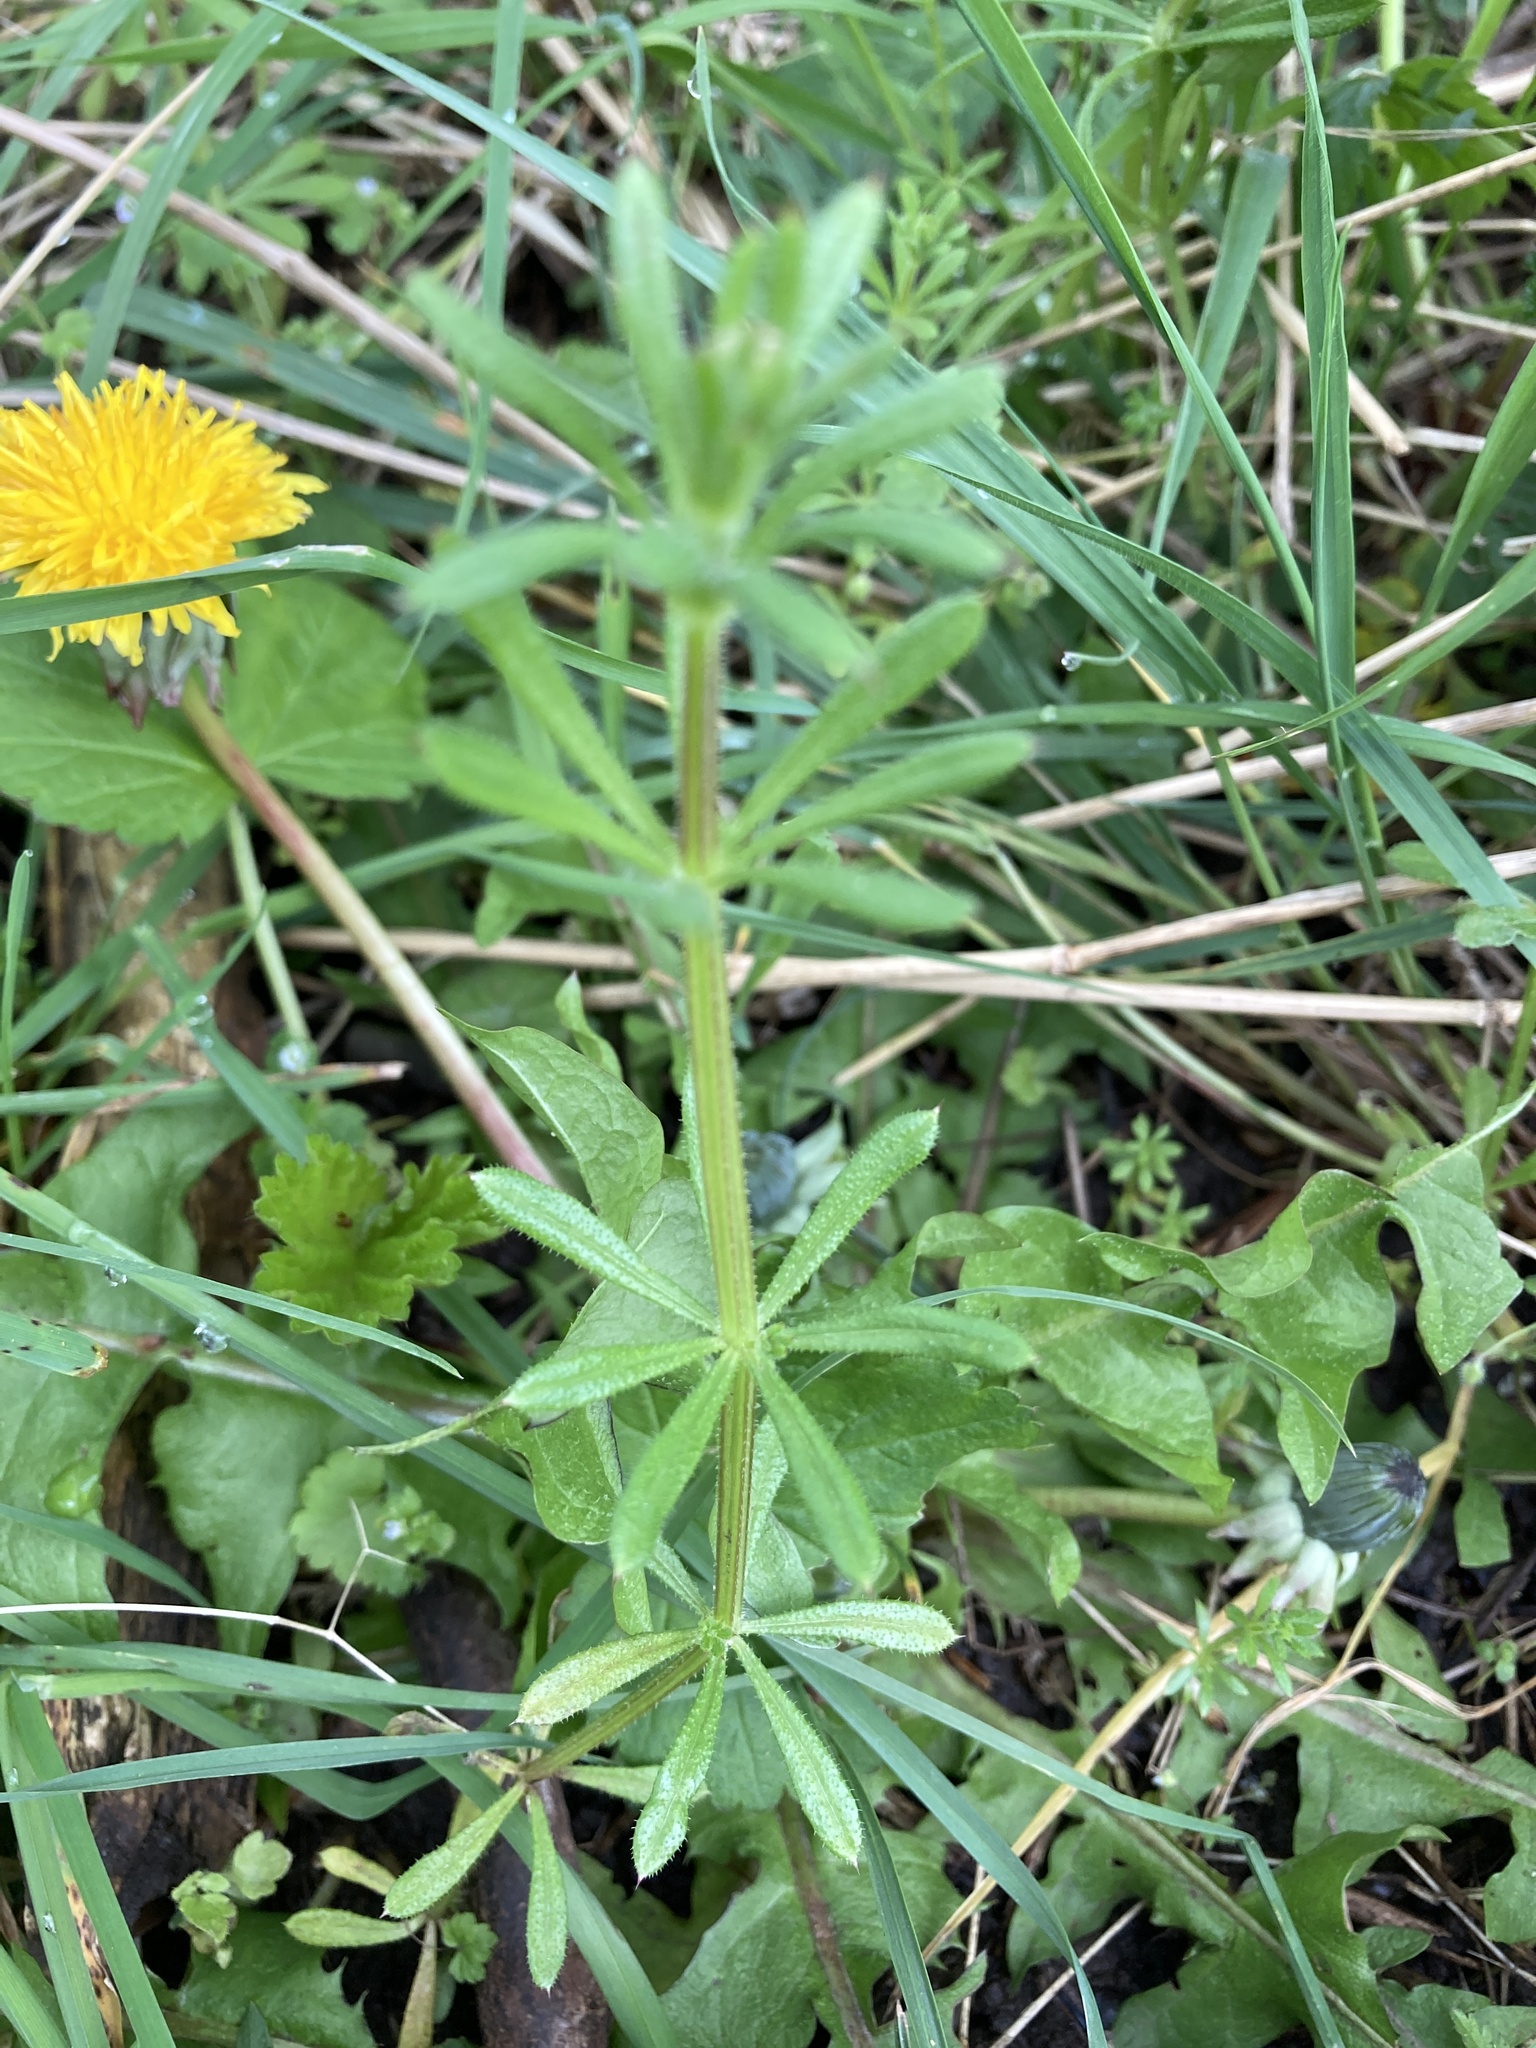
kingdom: Plantae
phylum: Tracheophyta
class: Magnoliopsida
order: Gentianales
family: Rubiaceae
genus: Galium
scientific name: Galium aparine
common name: Cleavers
